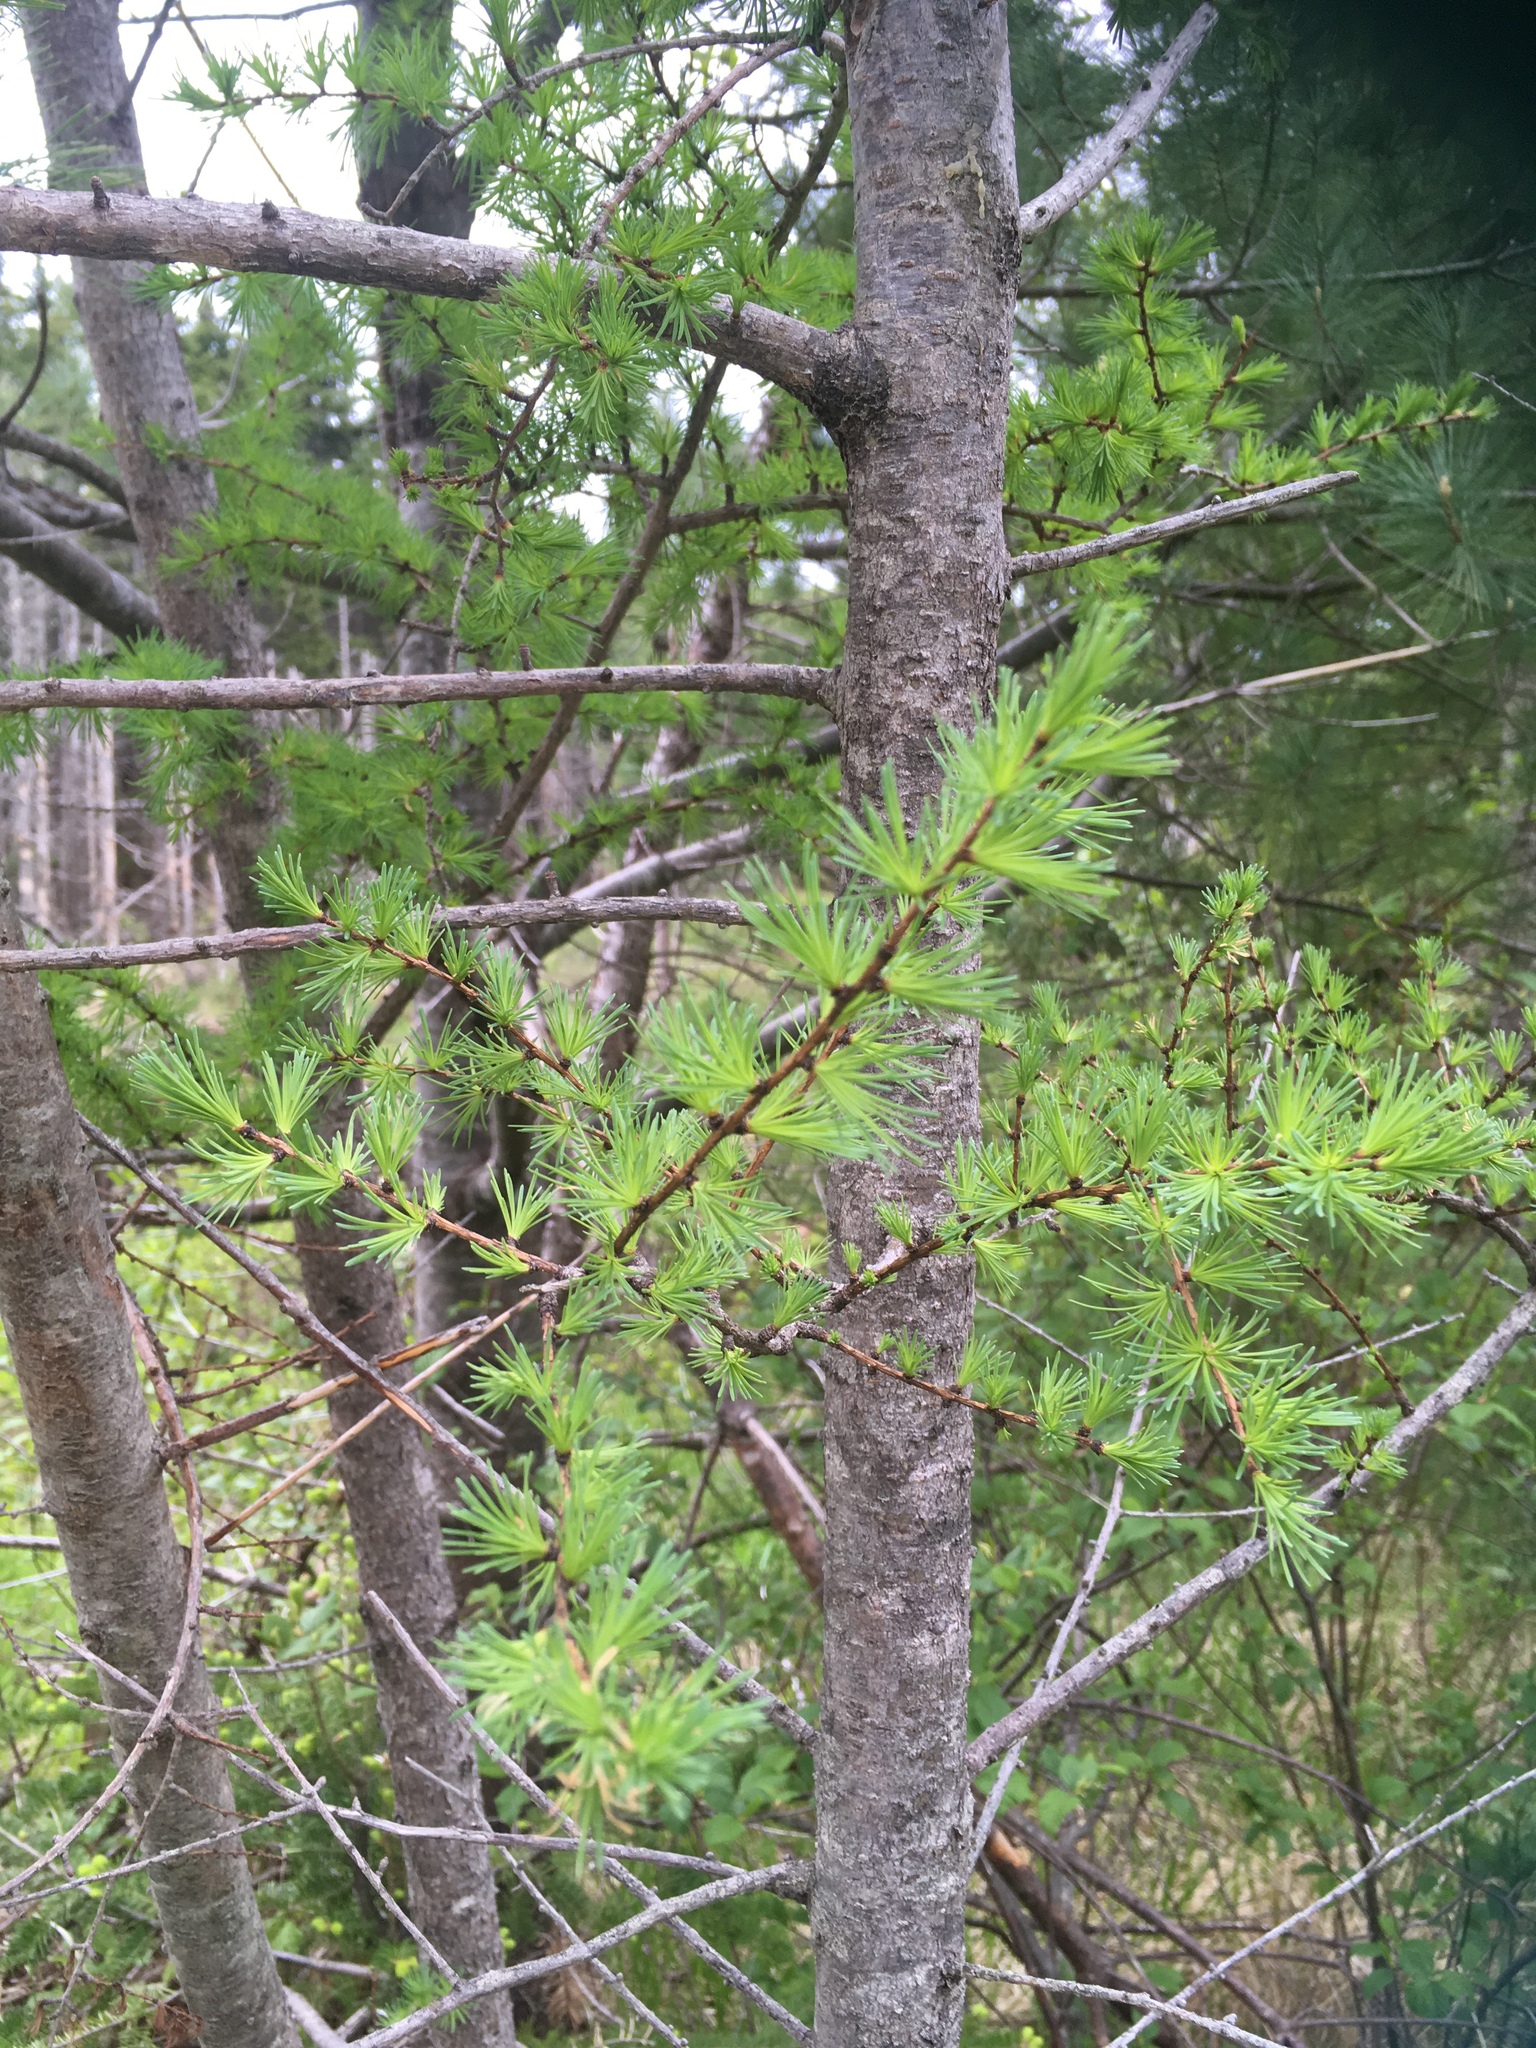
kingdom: Plantae
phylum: Tracheophyta
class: Pinopsida
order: Pinales
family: Pinaceae
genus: Larix
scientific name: Larix laricina
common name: American larch
